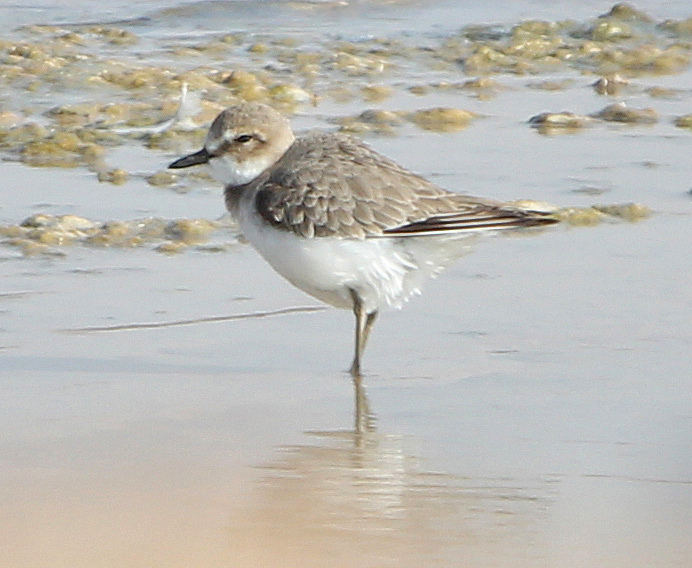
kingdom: Animalia
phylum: Chordata
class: Aves
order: Charadriiformes
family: Charadriidae
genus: Charadrius
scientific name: Charadrius leschenaultii
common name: Greater sand plover
